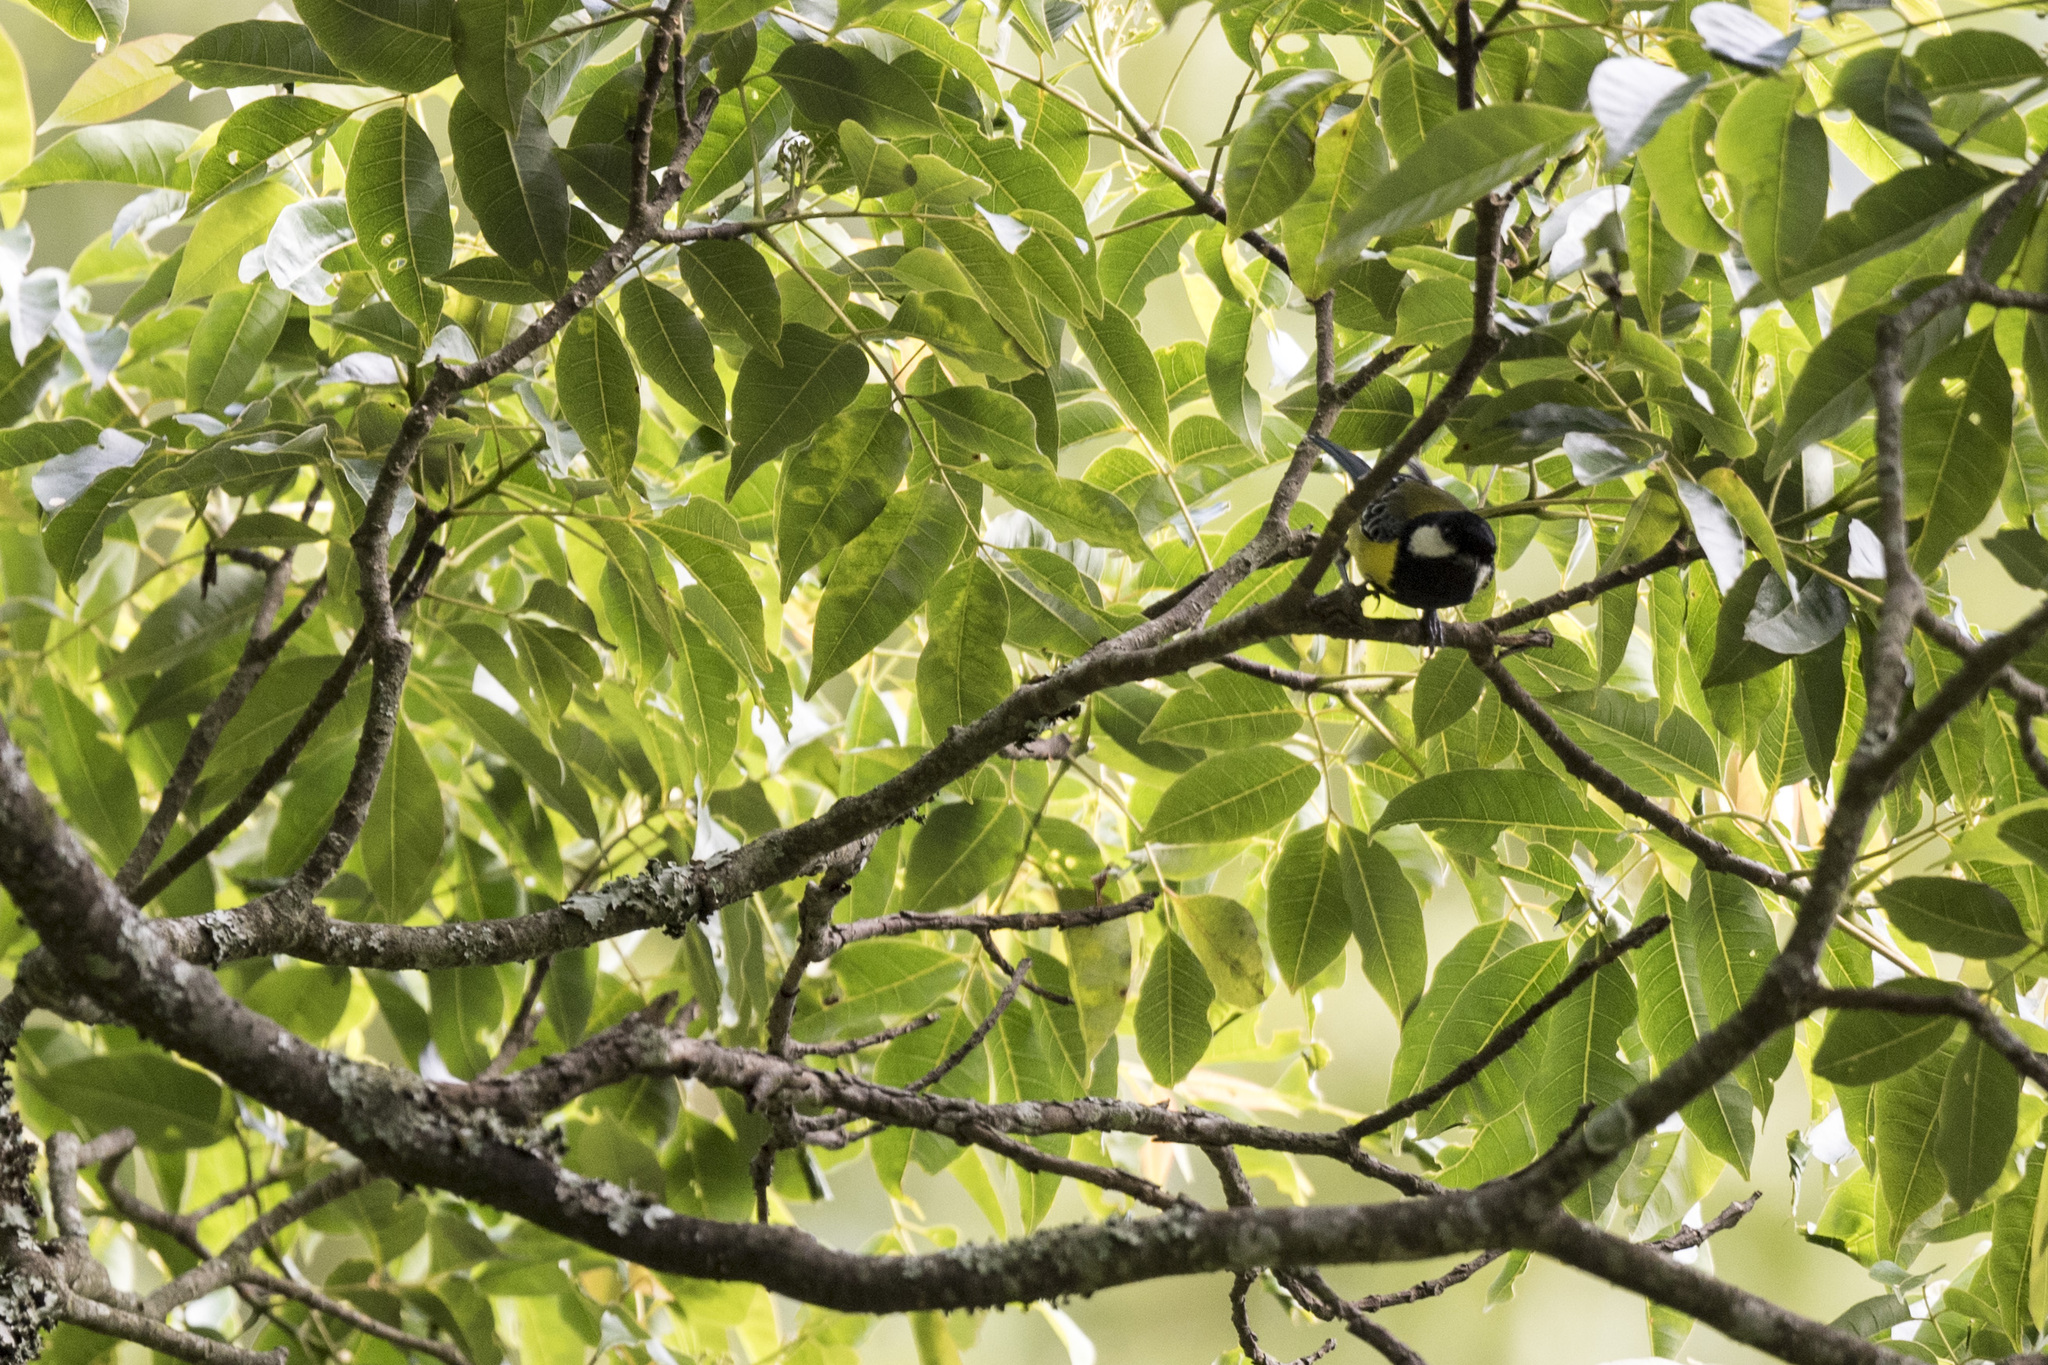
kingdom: Animalia
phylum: Chordata
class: Aves
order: Passeriformes
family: Paridae
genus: Parus
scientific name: Parus monticolus
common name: Green-backed tit
